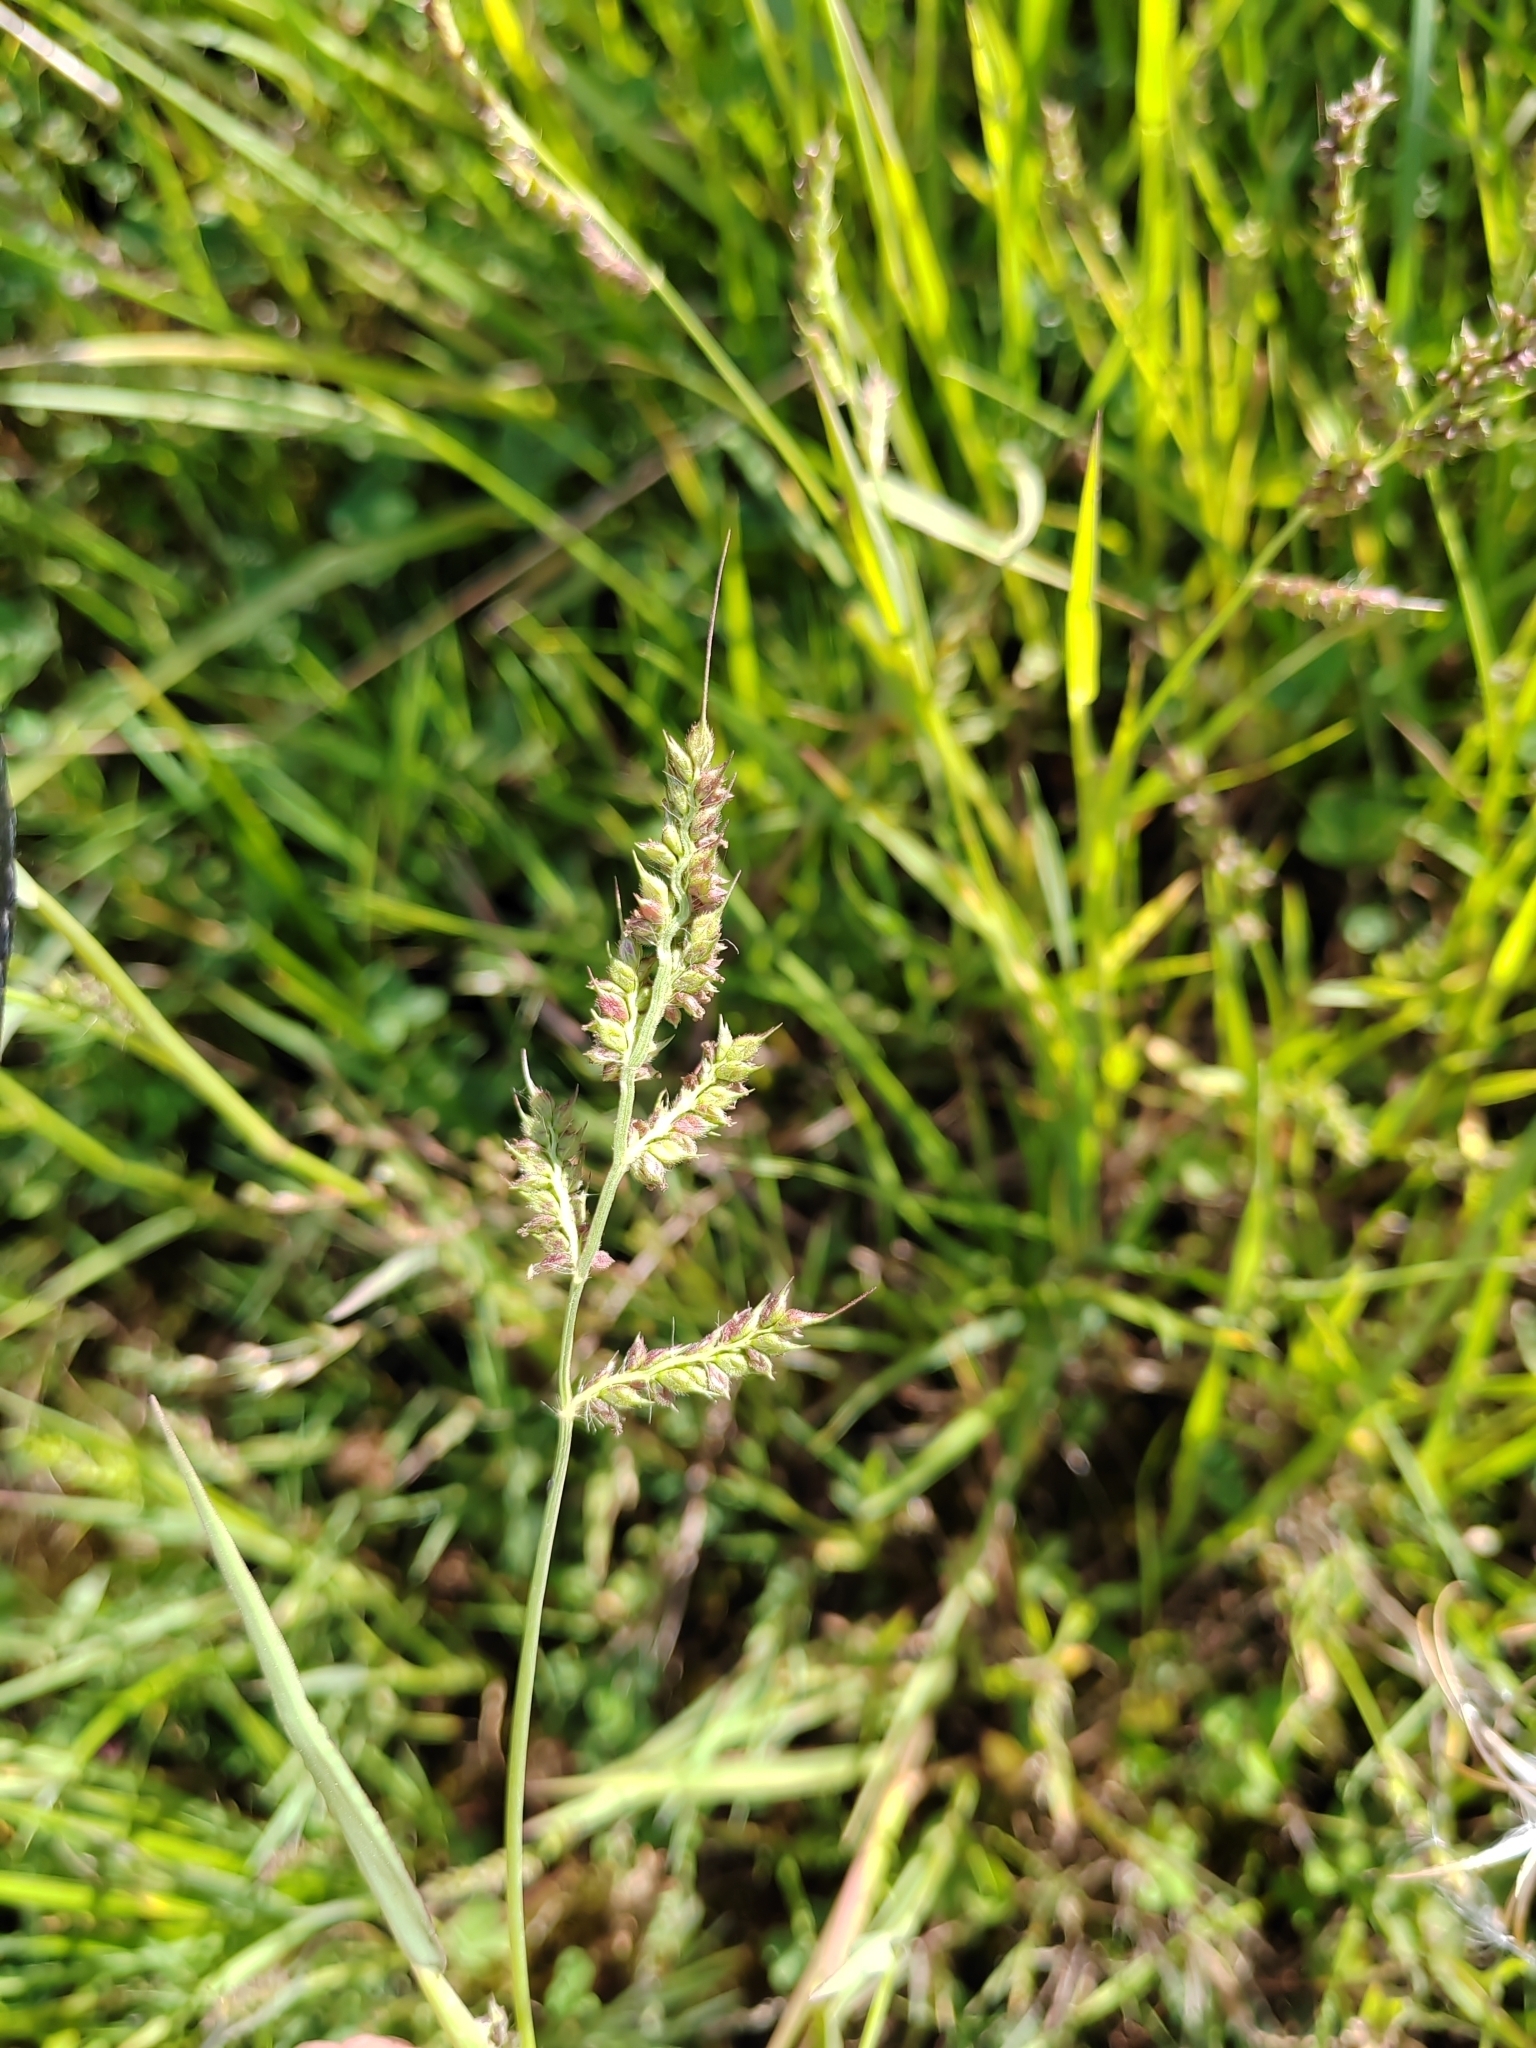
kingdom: Plantae
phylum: Tracheophyta
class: Liliopsida
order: Poales
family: Poaceae
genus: Echinochloa
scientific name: Echinochloa crus-galli
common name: Cockspur
